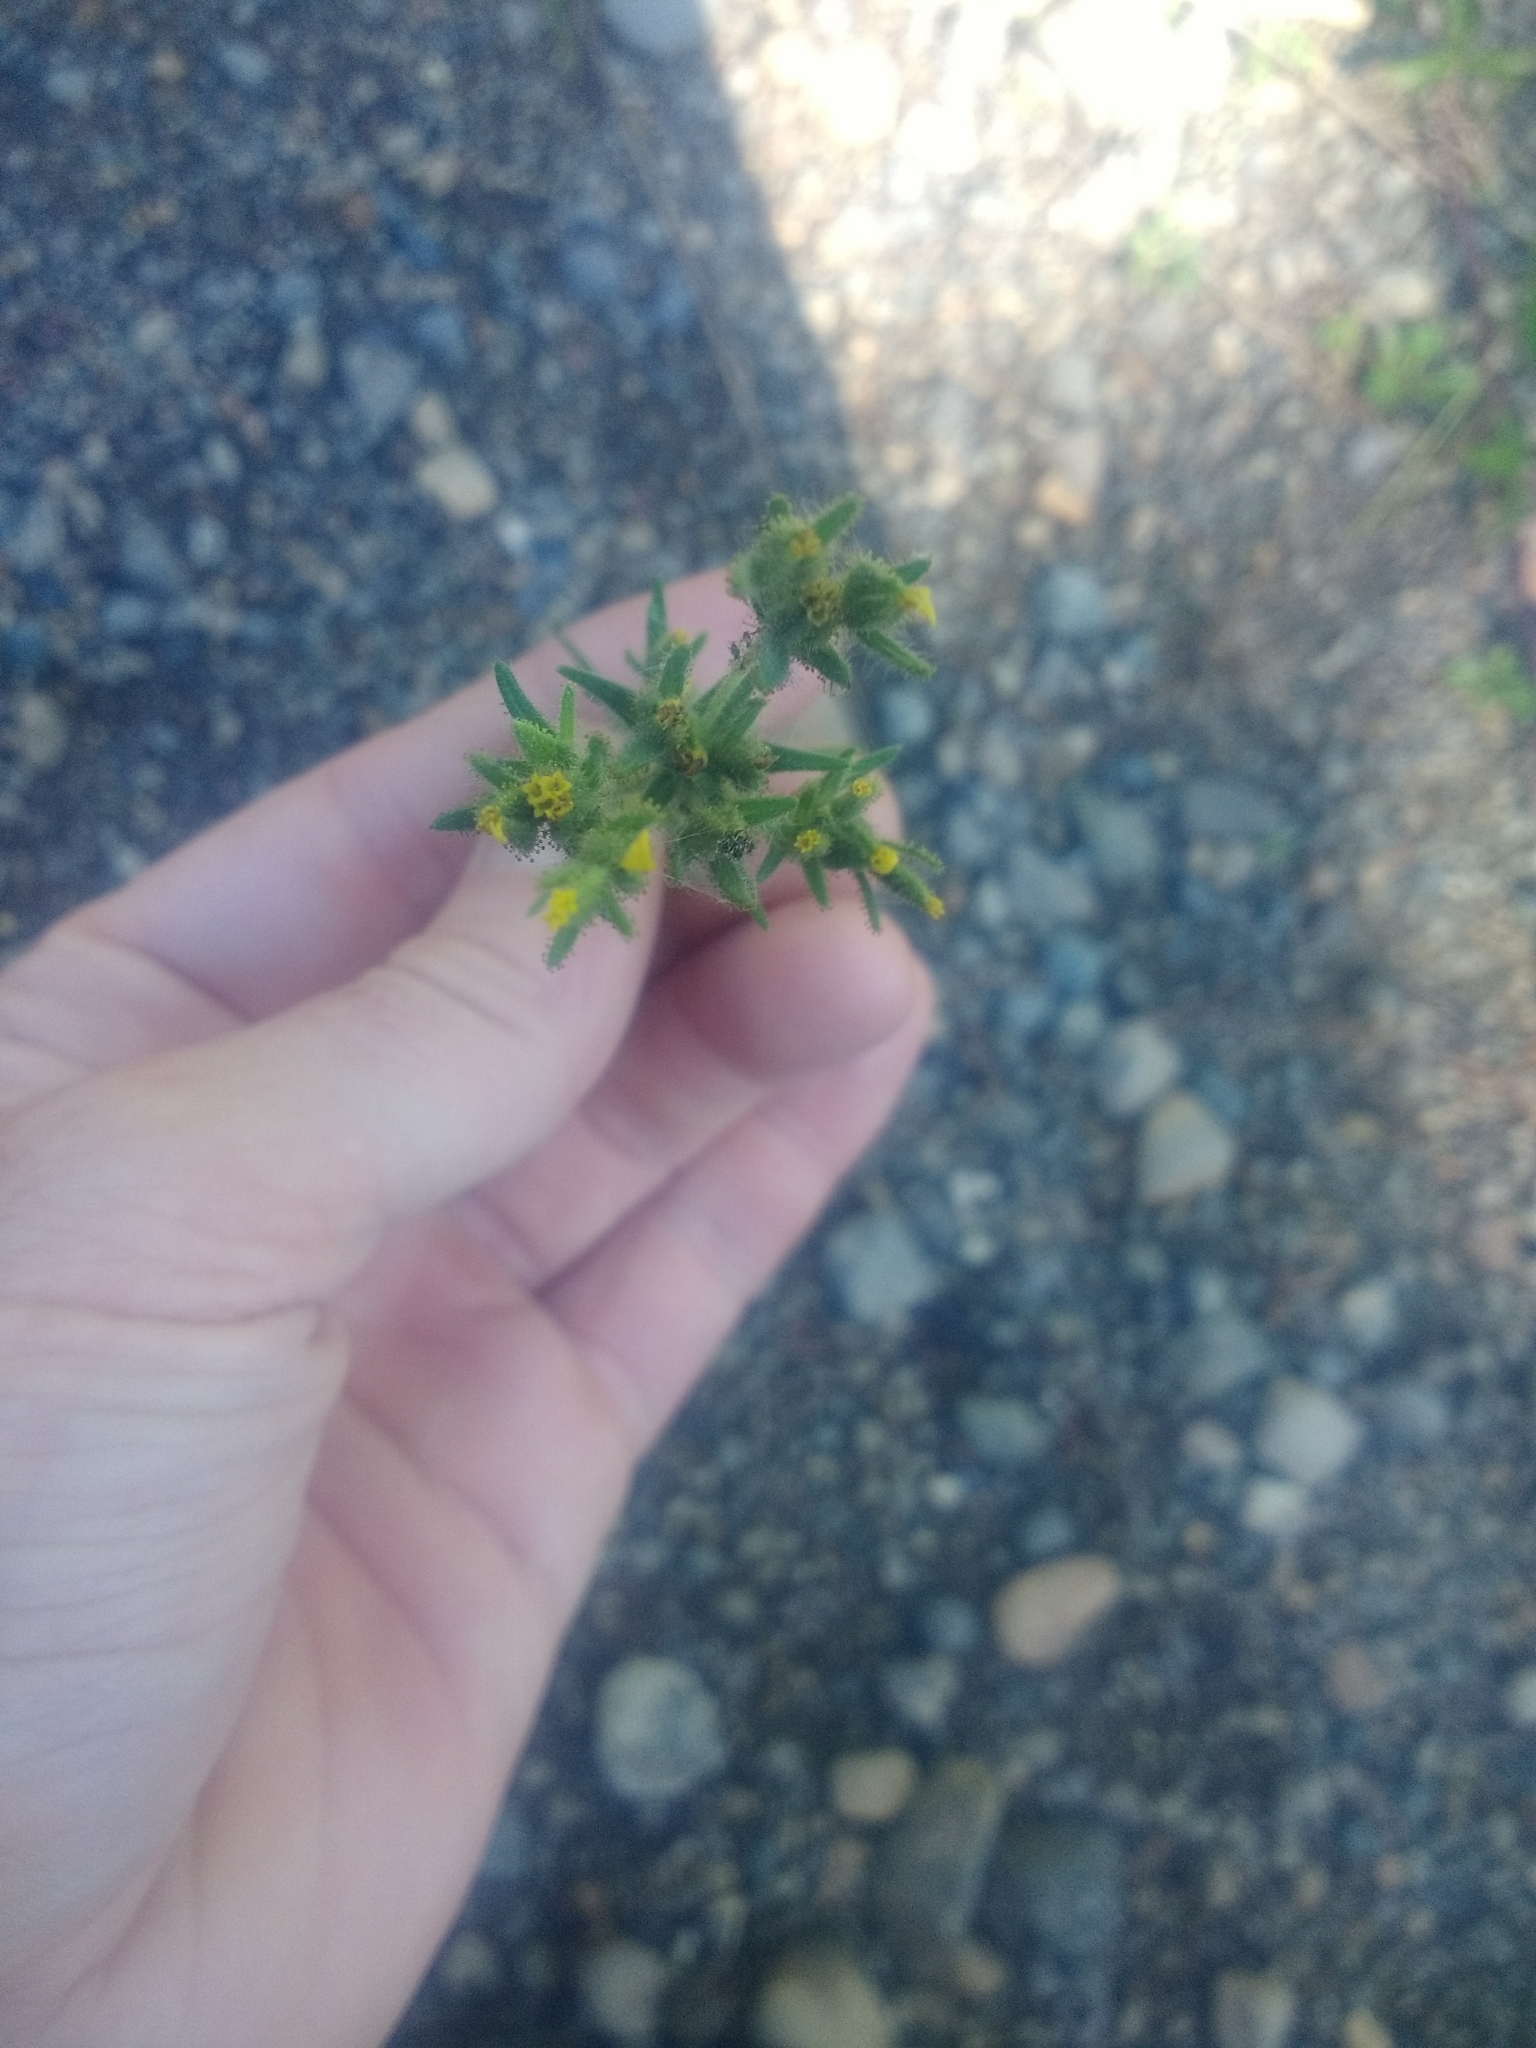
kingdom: Plantae
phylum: Tracheophyta
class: Magnoliopsida
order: Asterales
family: Asteraceae
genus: Madia
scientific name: Madia glomerata
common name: Mountain tarweed
